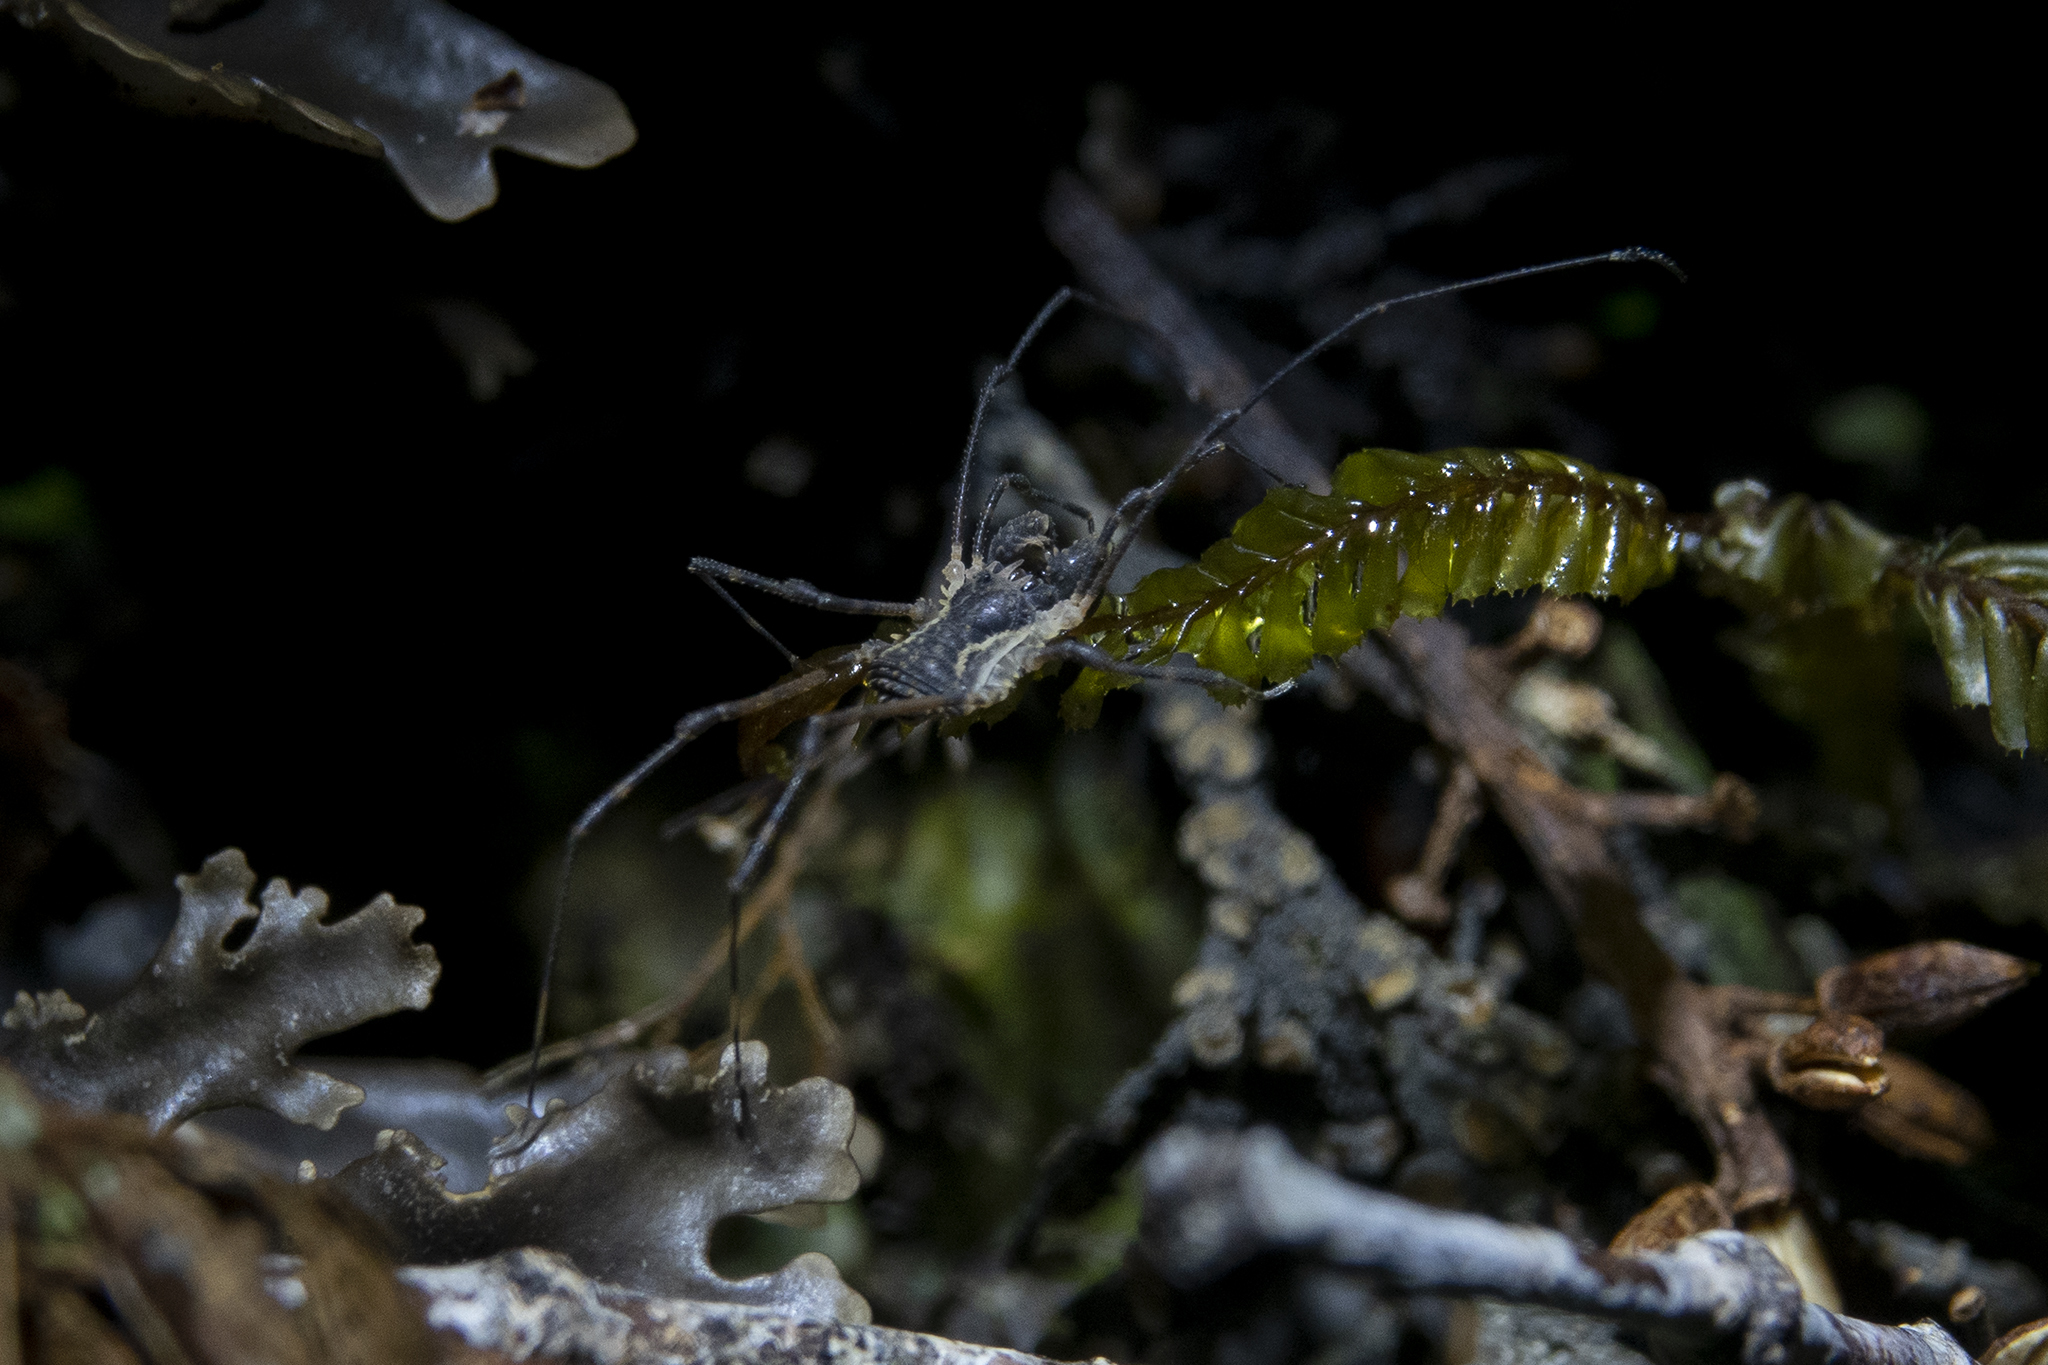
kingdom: Animalia
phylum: Arthropoda
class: Arachnida
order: Opiliones
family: Triaenonychidae
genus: Algidia
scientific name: Algidia interrupta
